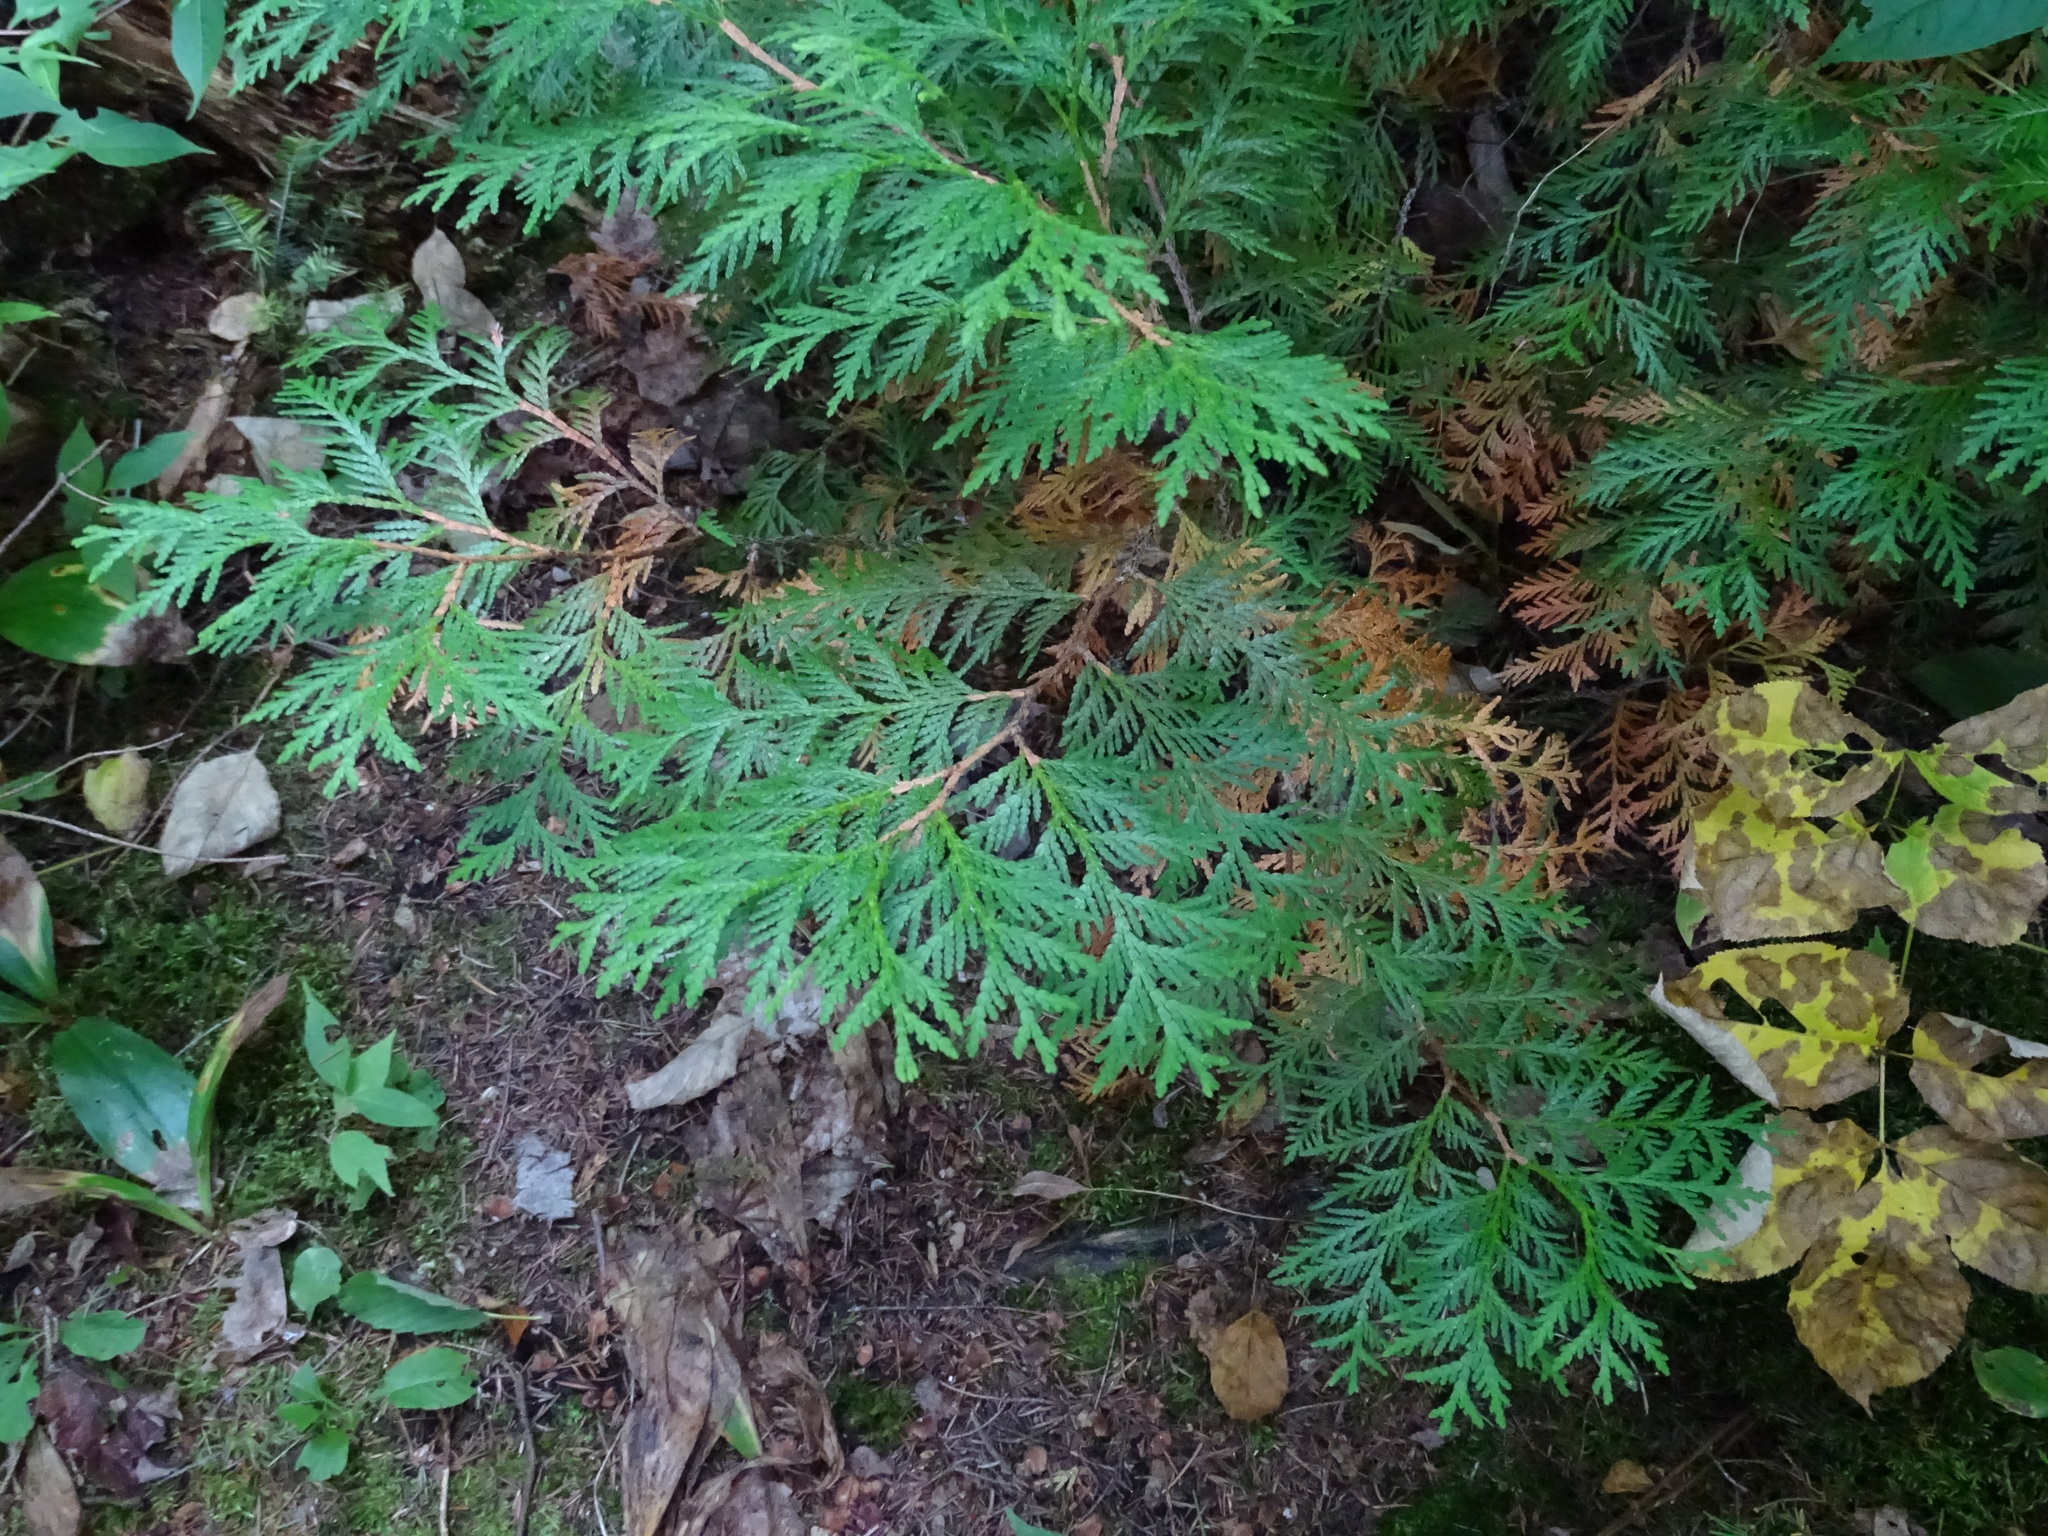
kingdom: Plantae
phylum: Tracheophyta
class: Pinopsida
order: Pinales
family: Cupressaceae
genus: Thuja
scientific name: Thuja occidentalis
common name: Northern white-cedar
